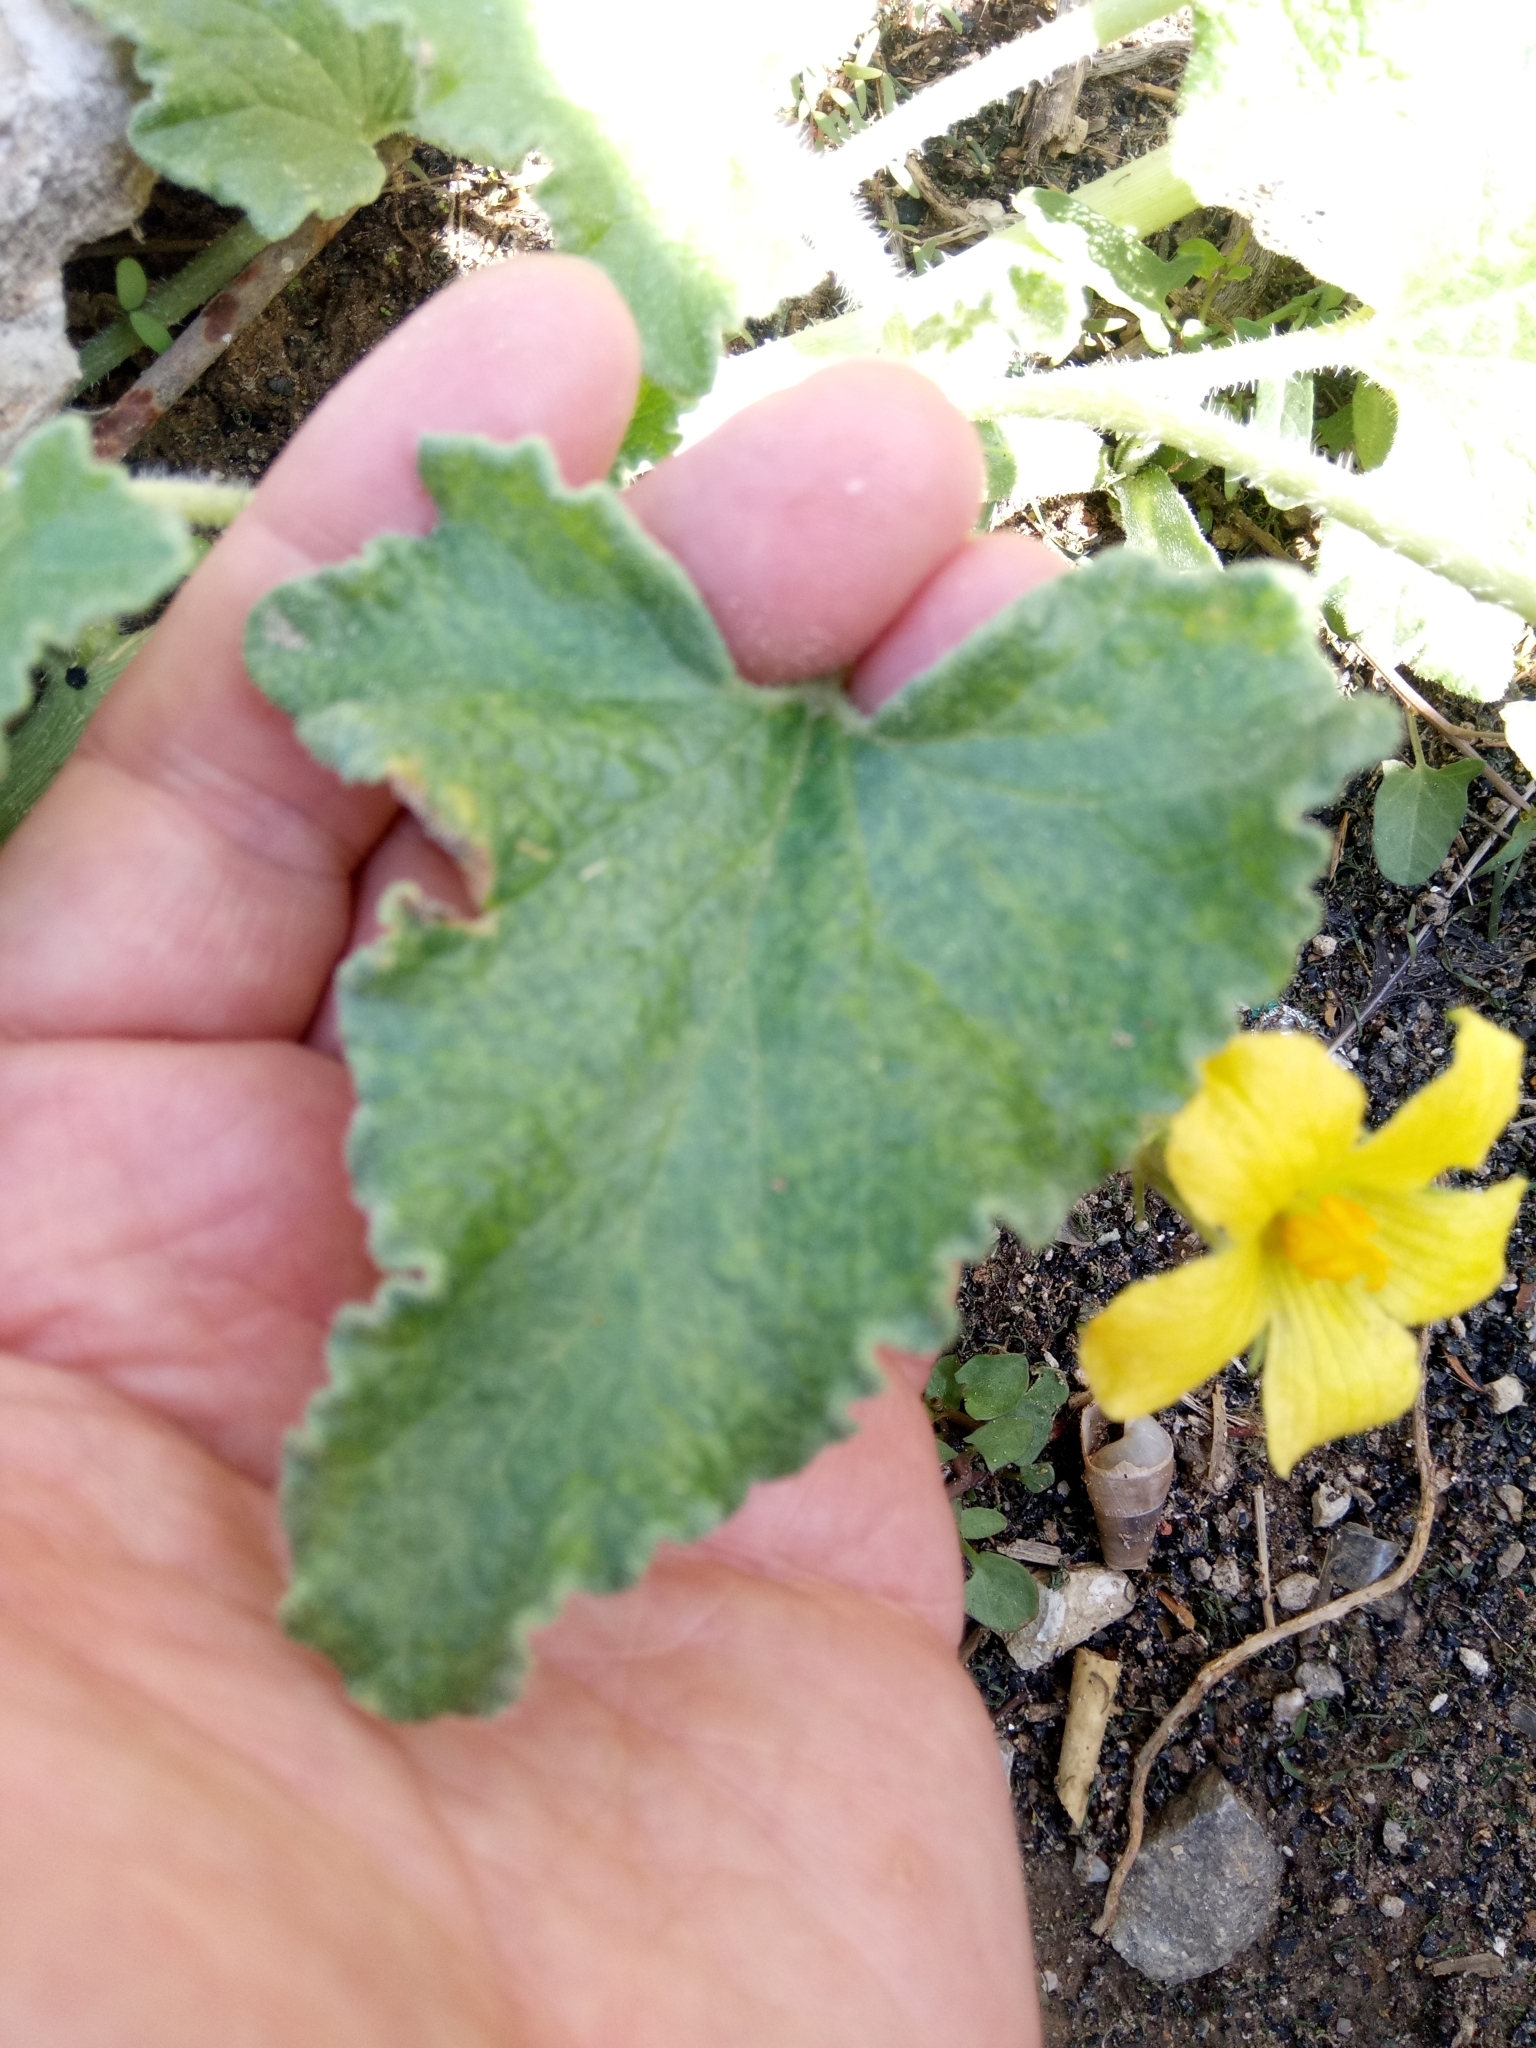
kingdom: Plantae
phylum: Tracheophyta
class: Magnoliopsida
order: Cucurbitales
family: Cucurbitaceae
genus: Ecballium
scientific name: Ecballium elaterium
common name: Squirting cucumber
